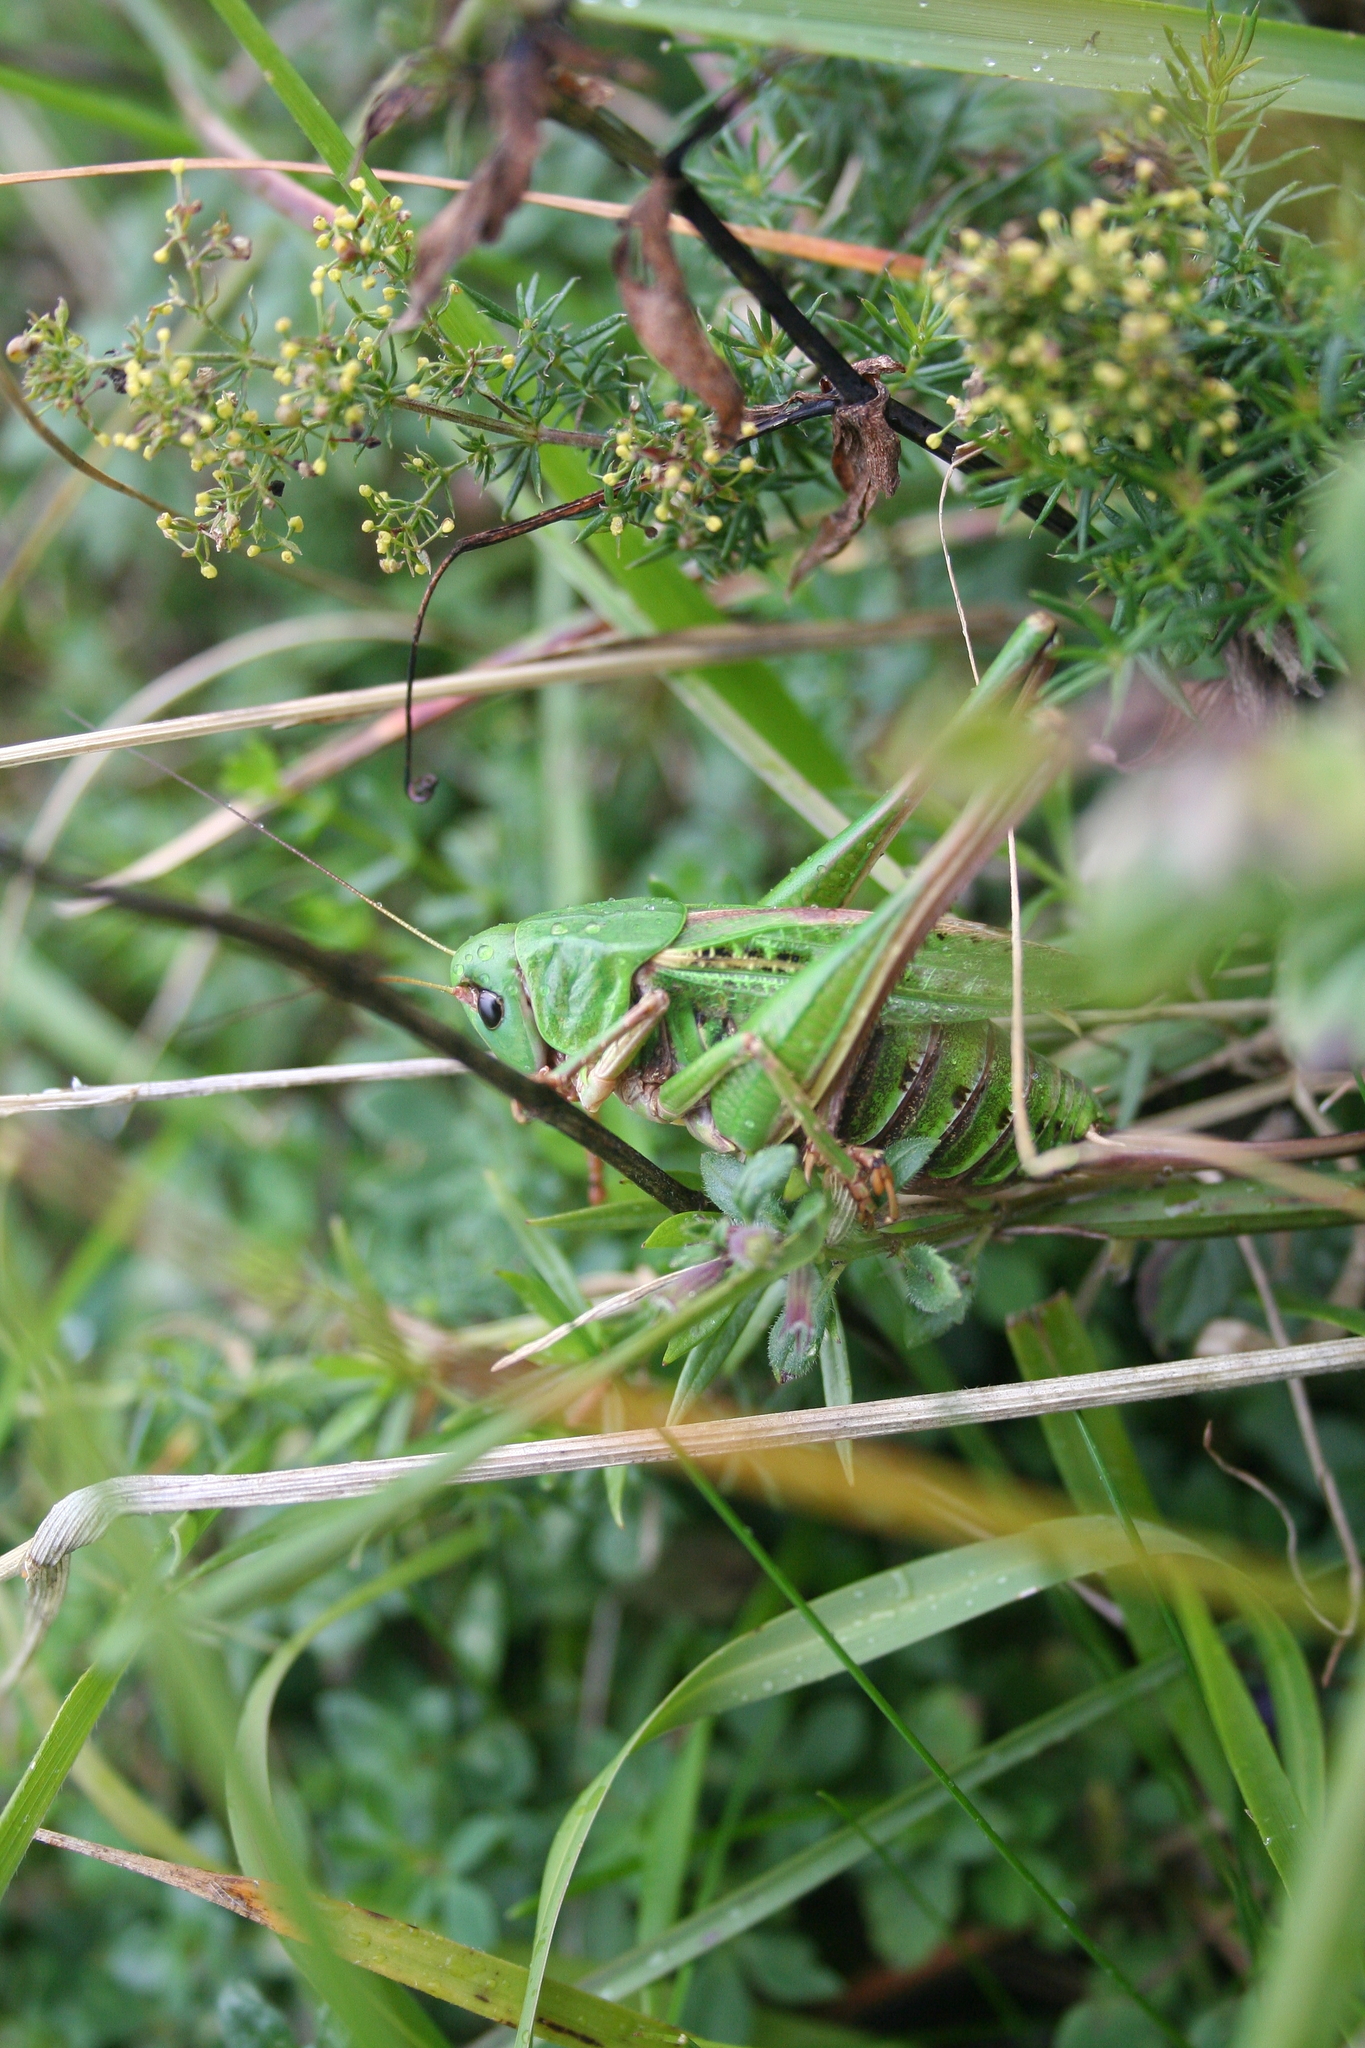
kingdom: Animalia
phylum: Arthropoda
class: Insecta
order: Orthoptera
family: Tettigoniidae
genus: Decticus
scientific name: Decticus verrucivorus
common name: Wart-biter
